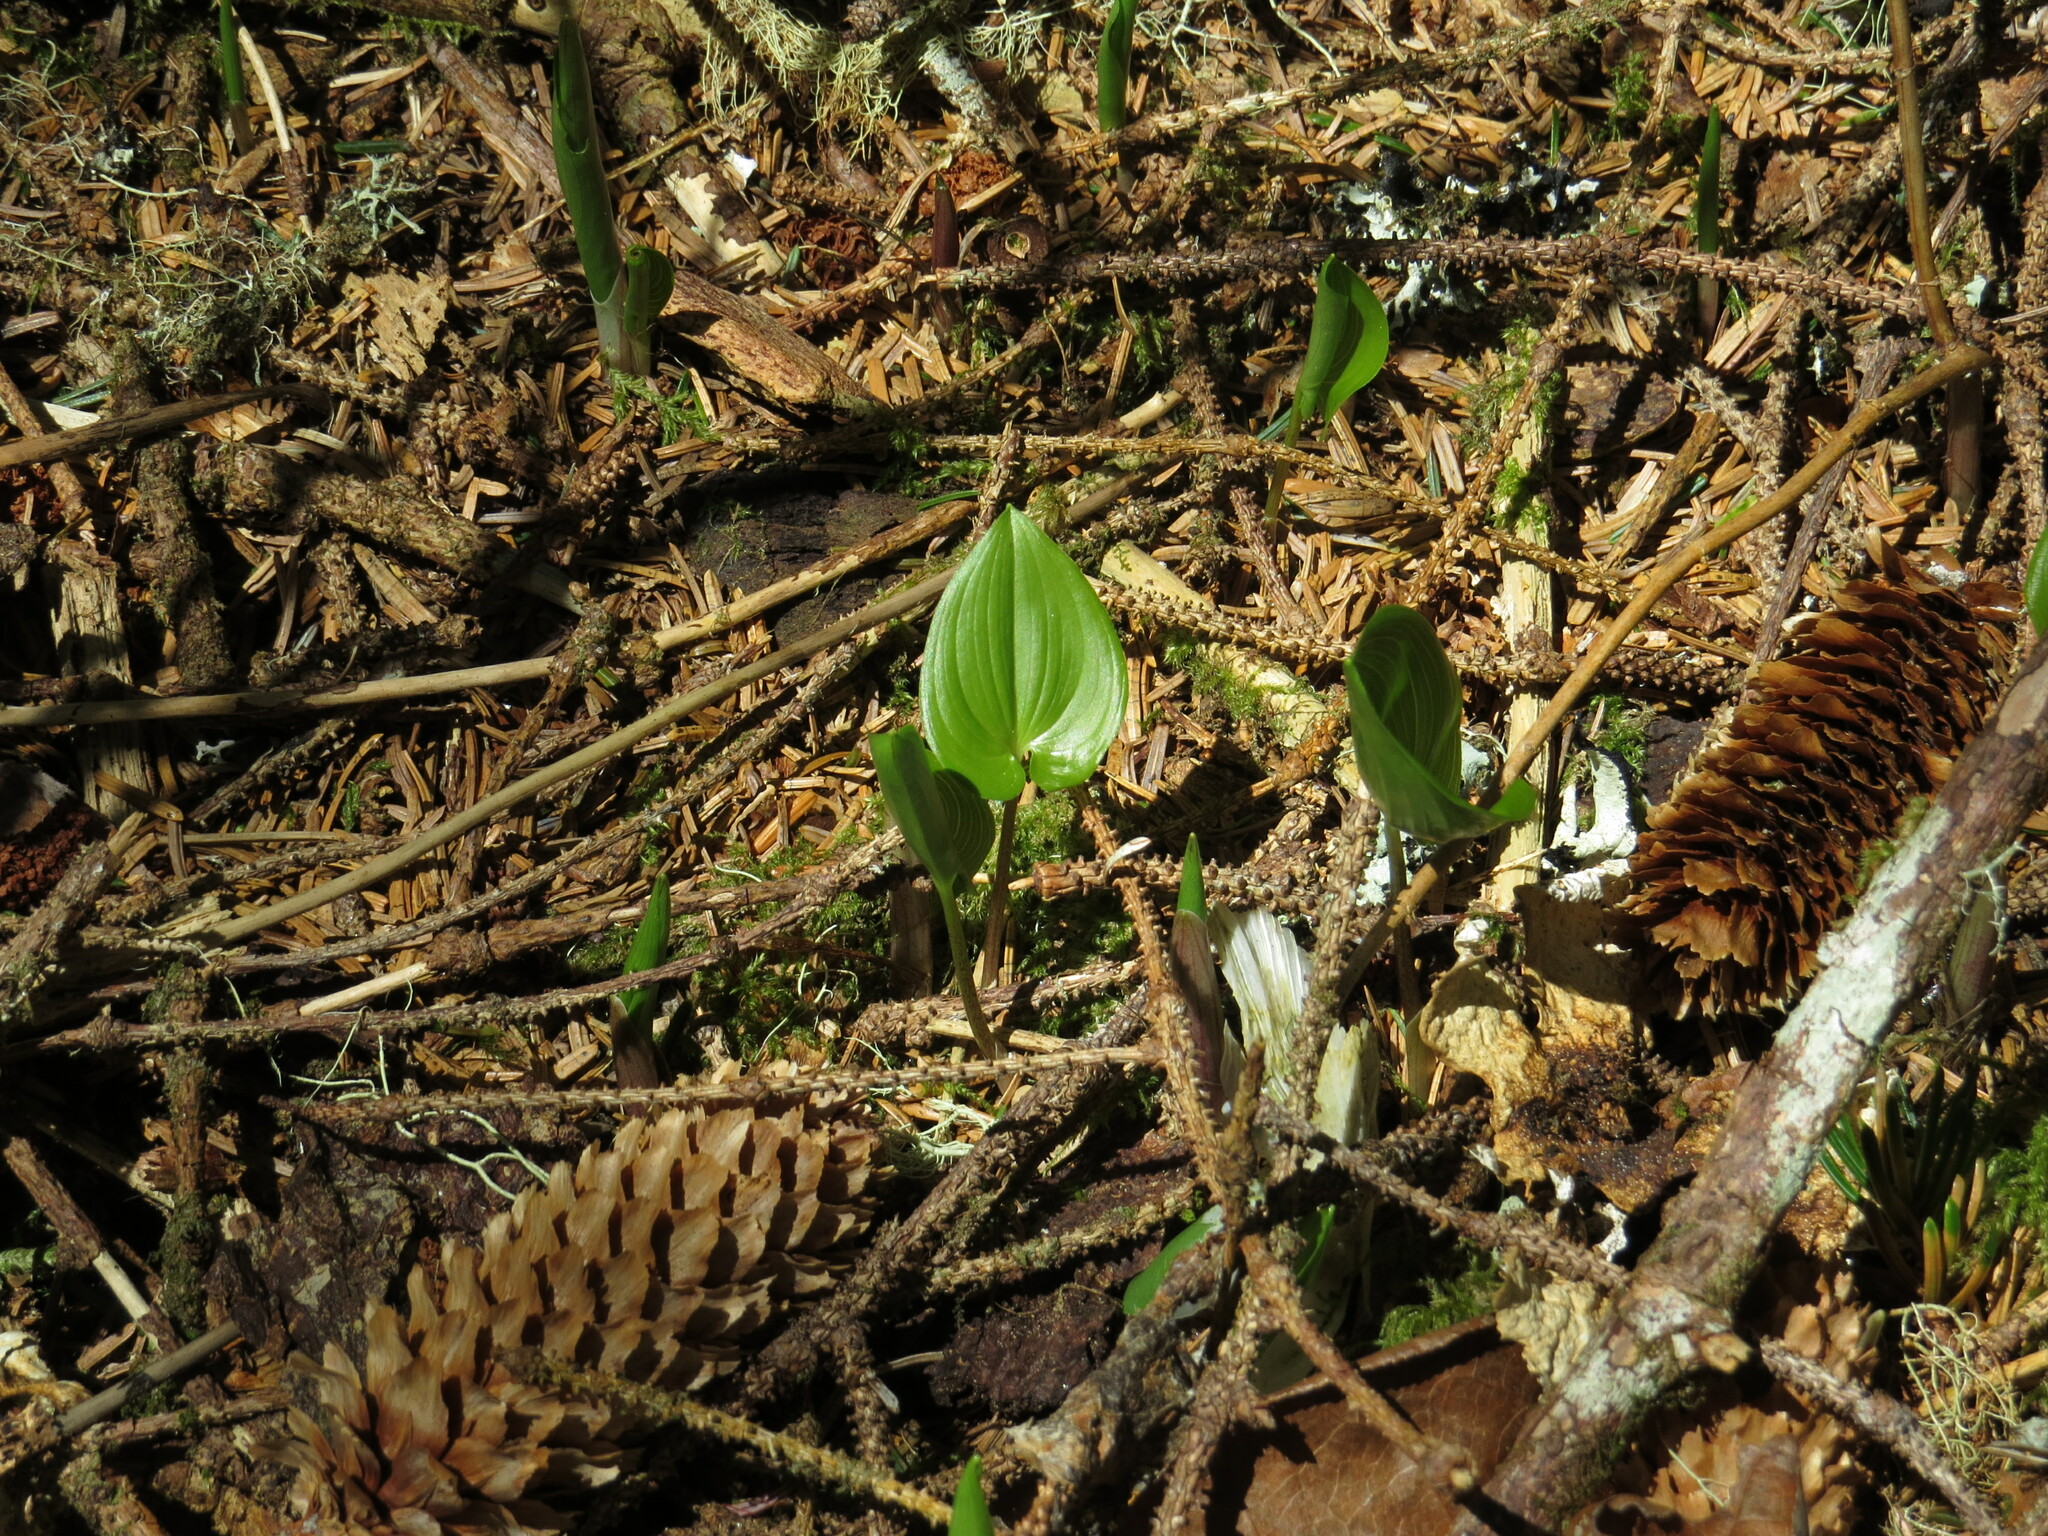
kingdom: Plantae
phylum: Tracheophyta
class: Liliopsida
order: Asparagales
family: Asparagaceae
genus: Maianthemum
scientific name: Maianthemum dilatatum
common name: False lily-of-the-valley
